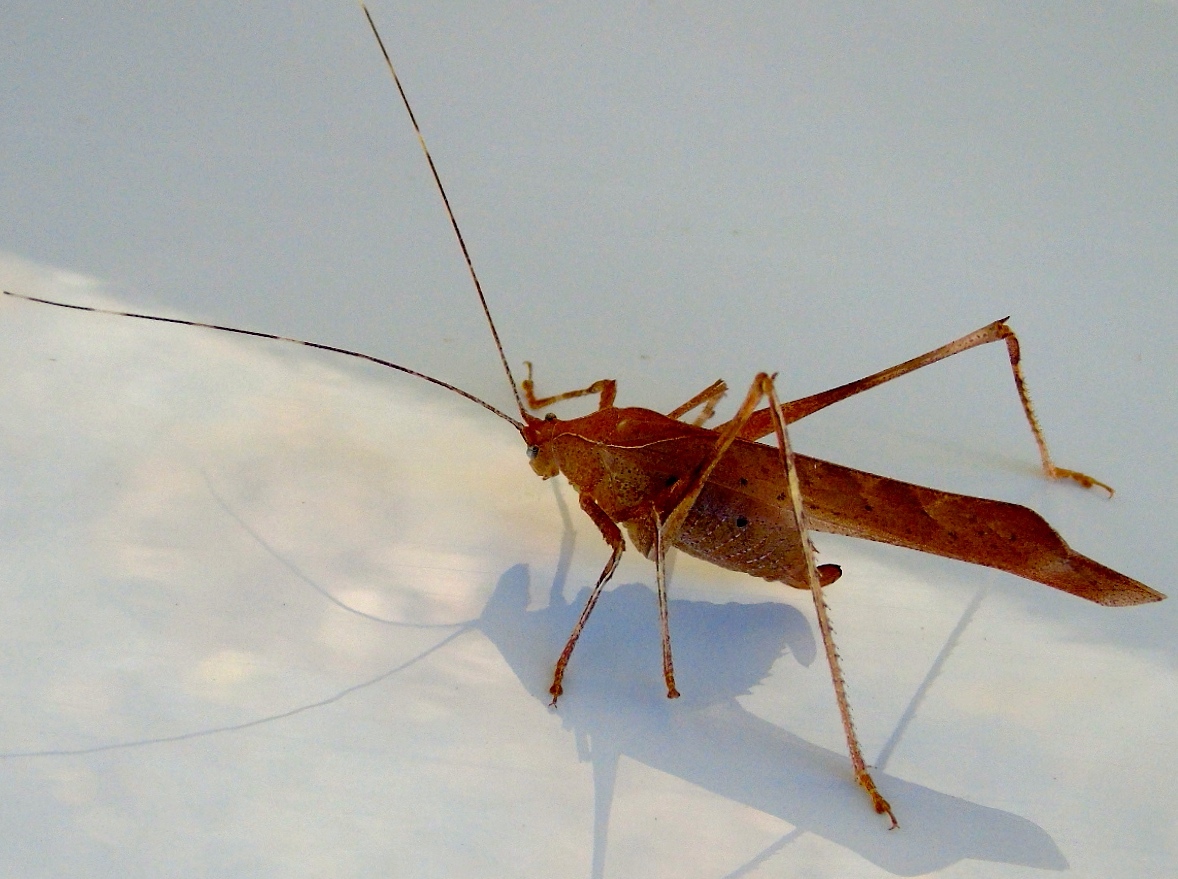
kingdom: Animalia
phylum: Arthropoda
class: Insecta
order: Orthoptera
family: Tettigoniidae
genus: Insara
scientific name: Insara
